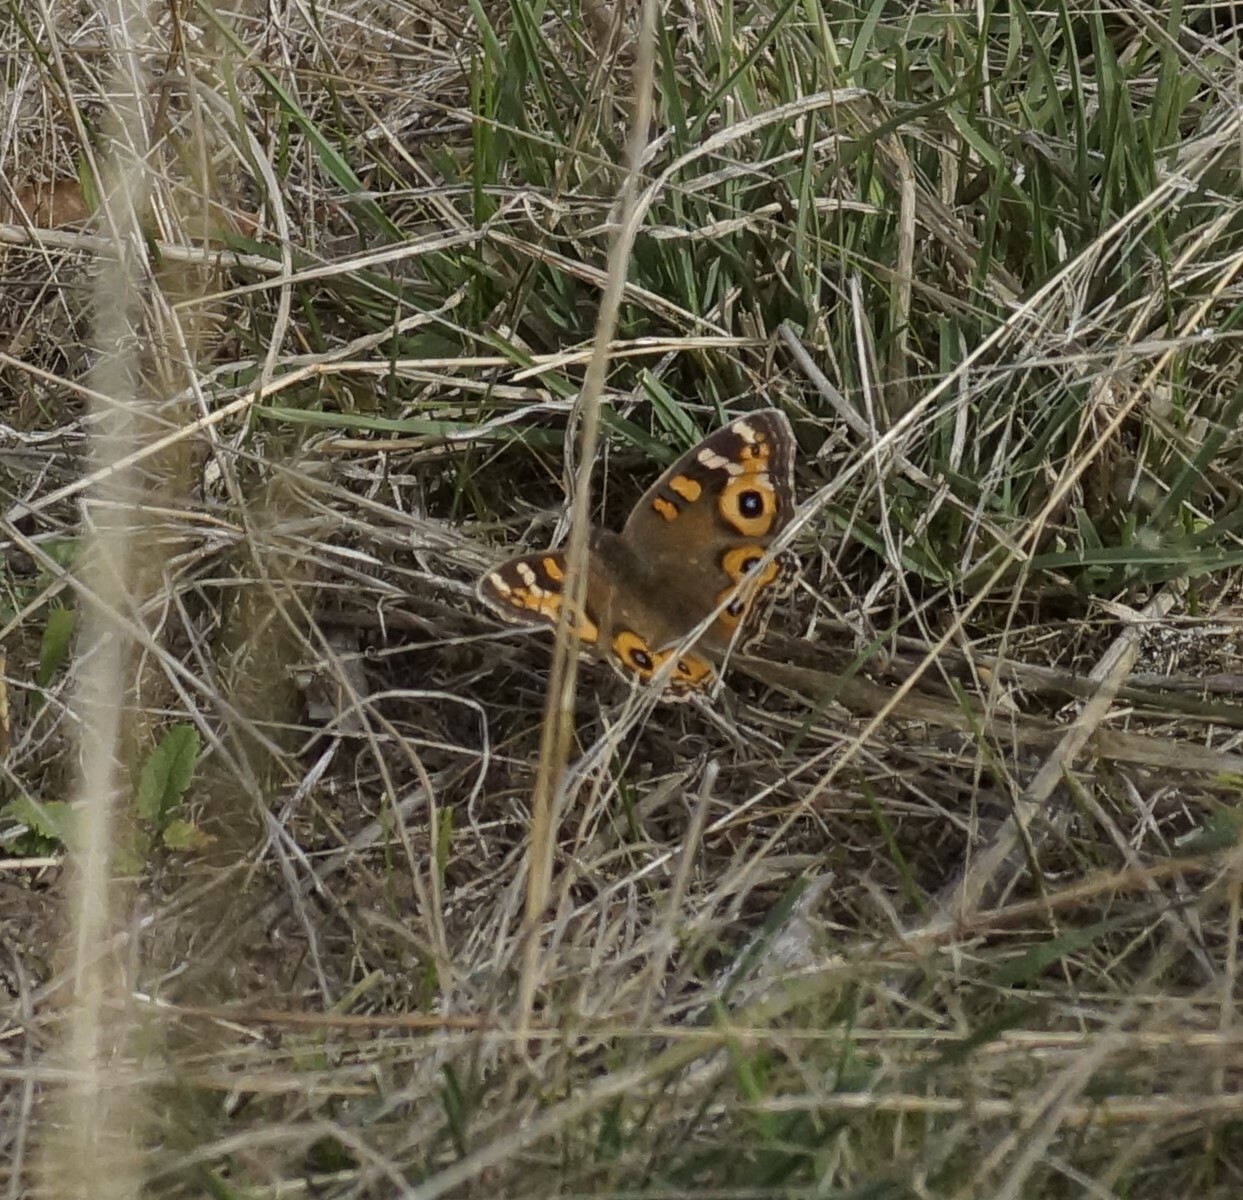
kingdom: Animalia
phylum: Arthropoda
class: Insecta
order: Lepidoptera
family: Nymphalidae
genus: Junonia
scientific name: Junonia villida
